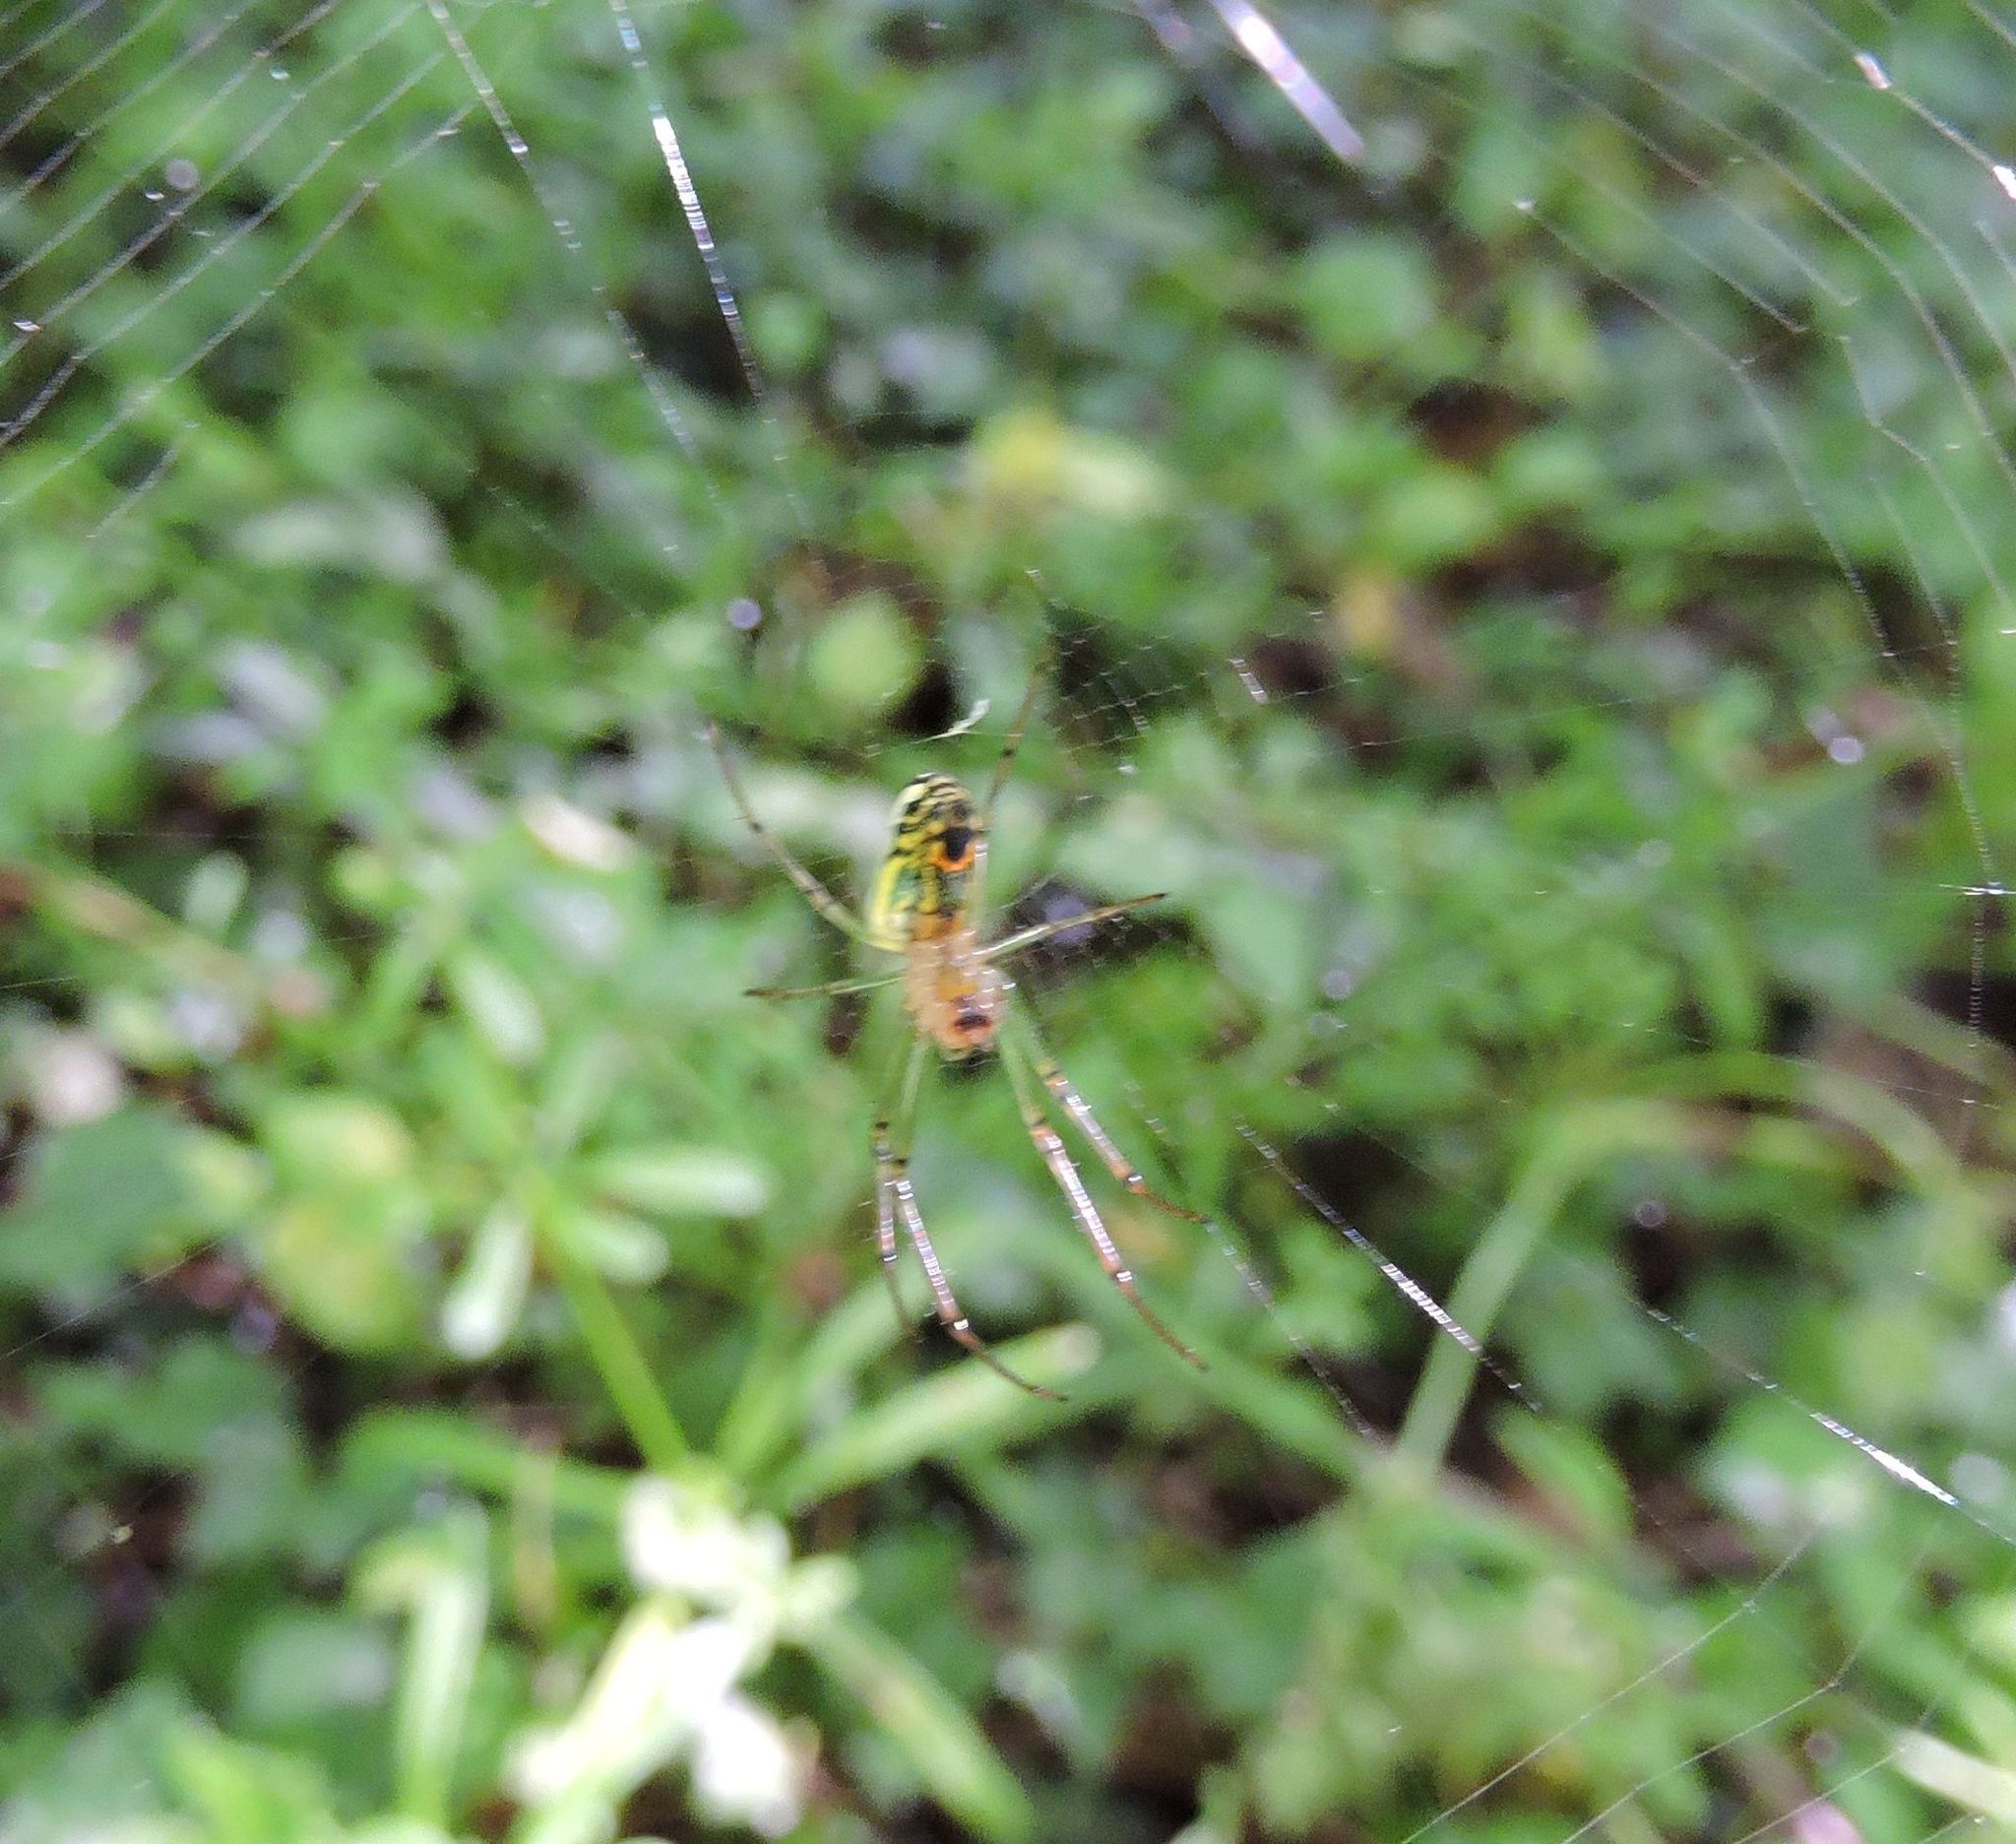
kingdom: Animalia
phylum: Arthropoda
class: Arachnida
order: Araneae
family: Tetragnathidae
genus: Leucauge
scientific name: Leucauge venusta
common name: Longjawed orb weavers
